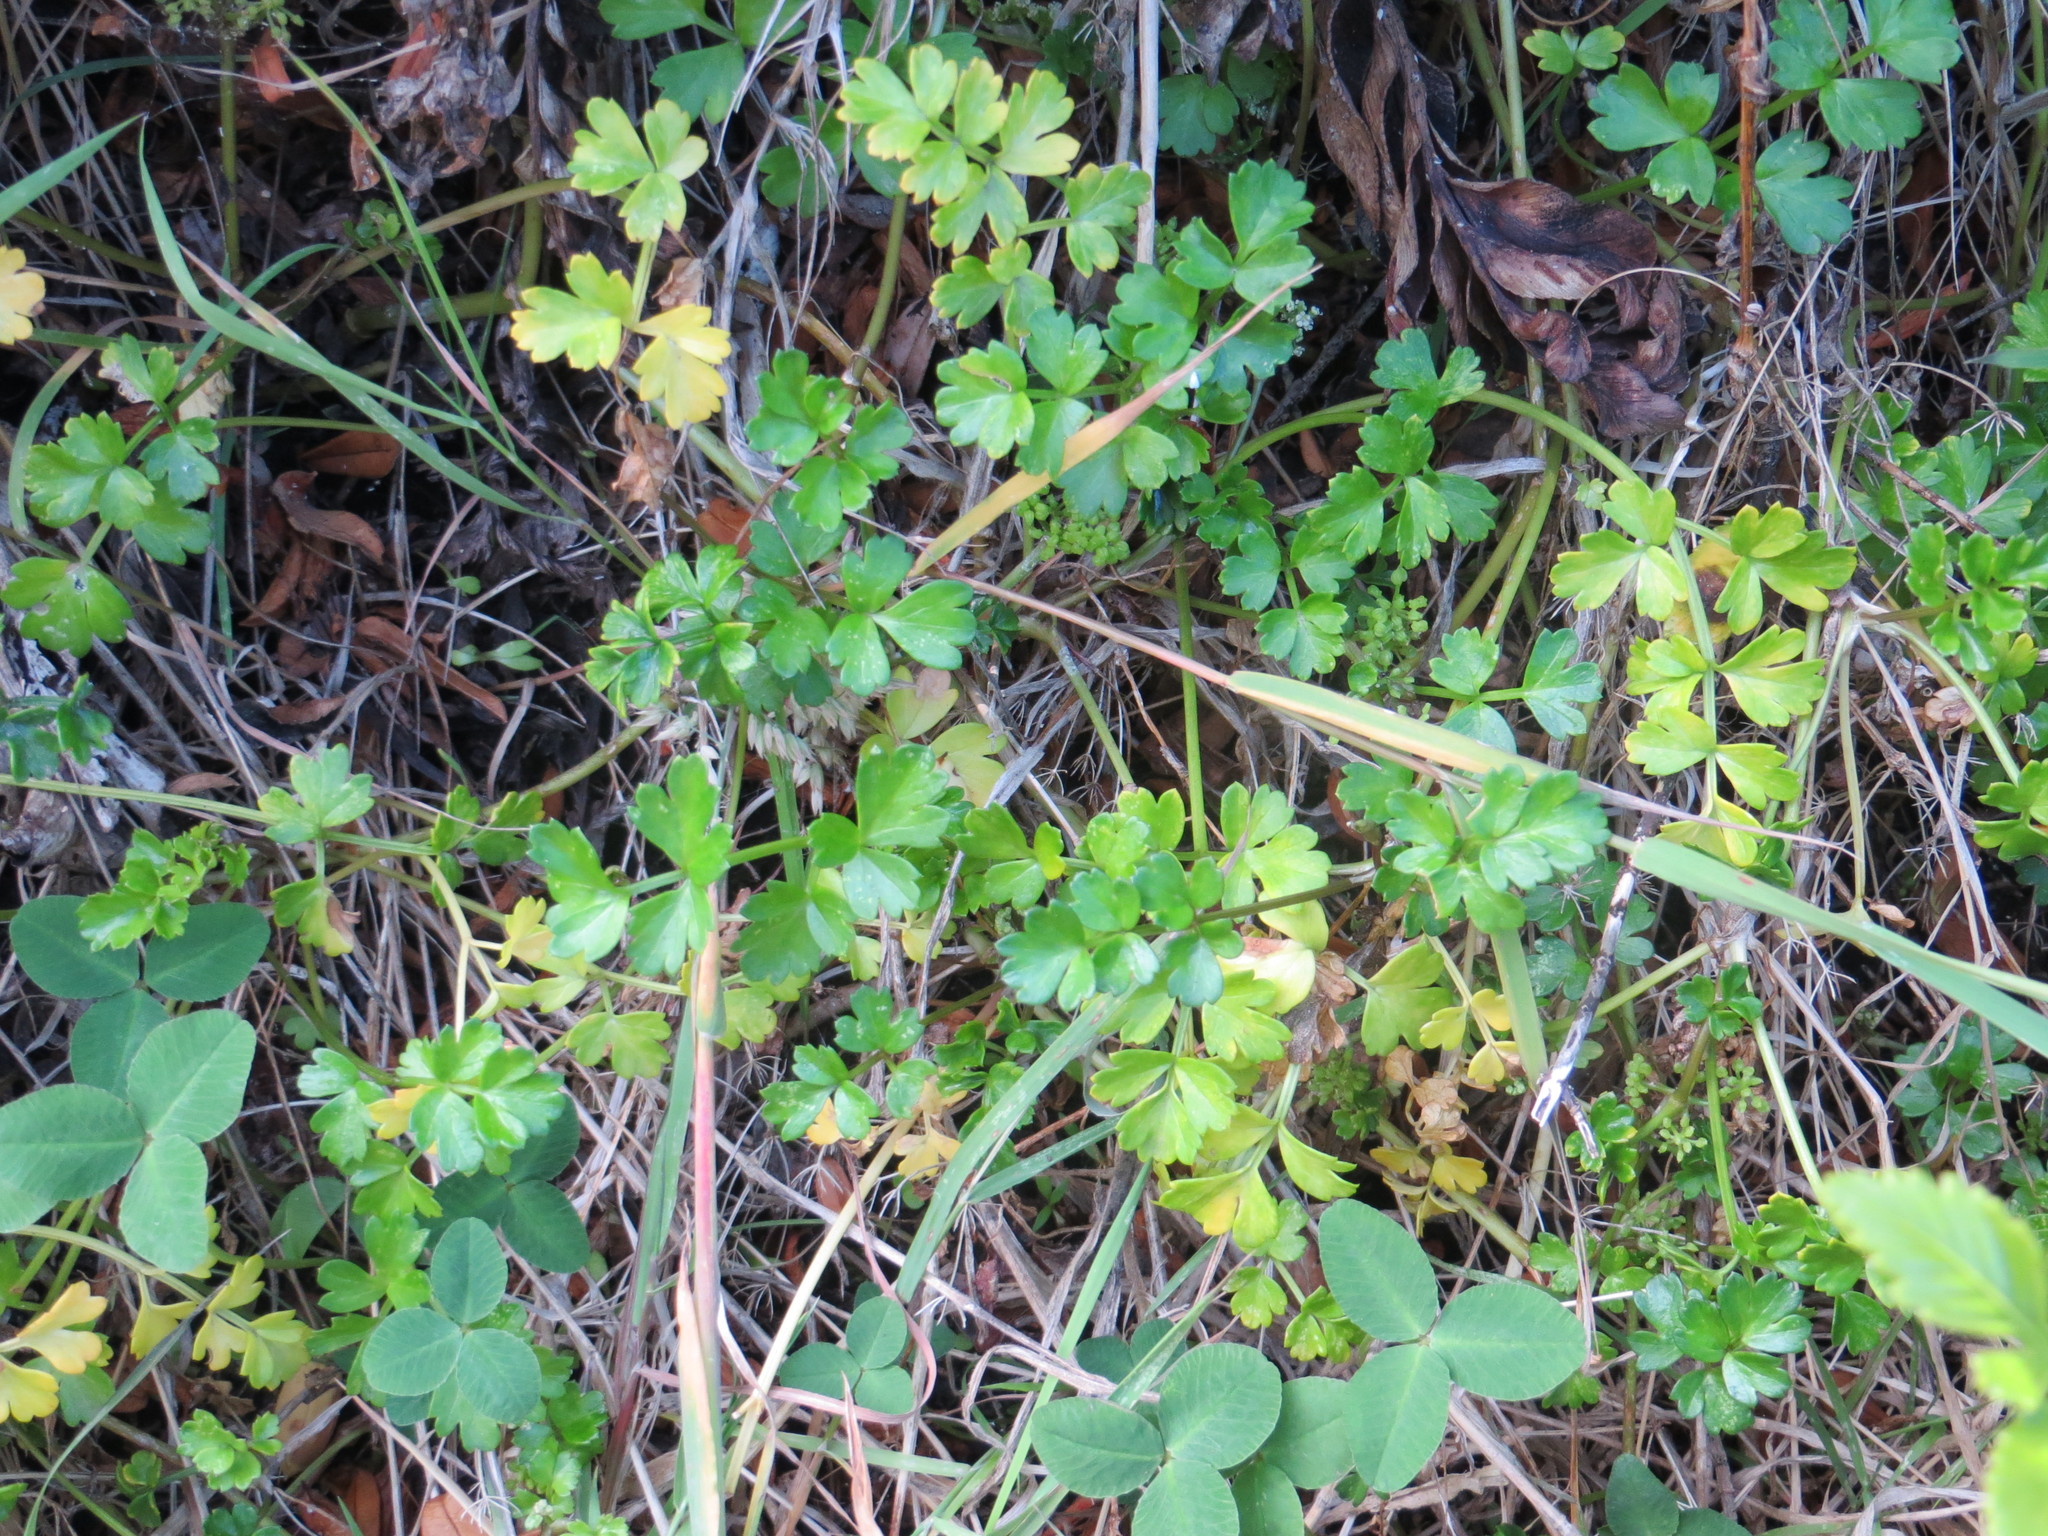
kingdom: Plantae
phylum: Tracheophyta
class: Magnoliopsida
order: Apiales
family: Apiaceae
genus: Apium
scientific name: Apium prostratum
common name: Prostrate marshwort
